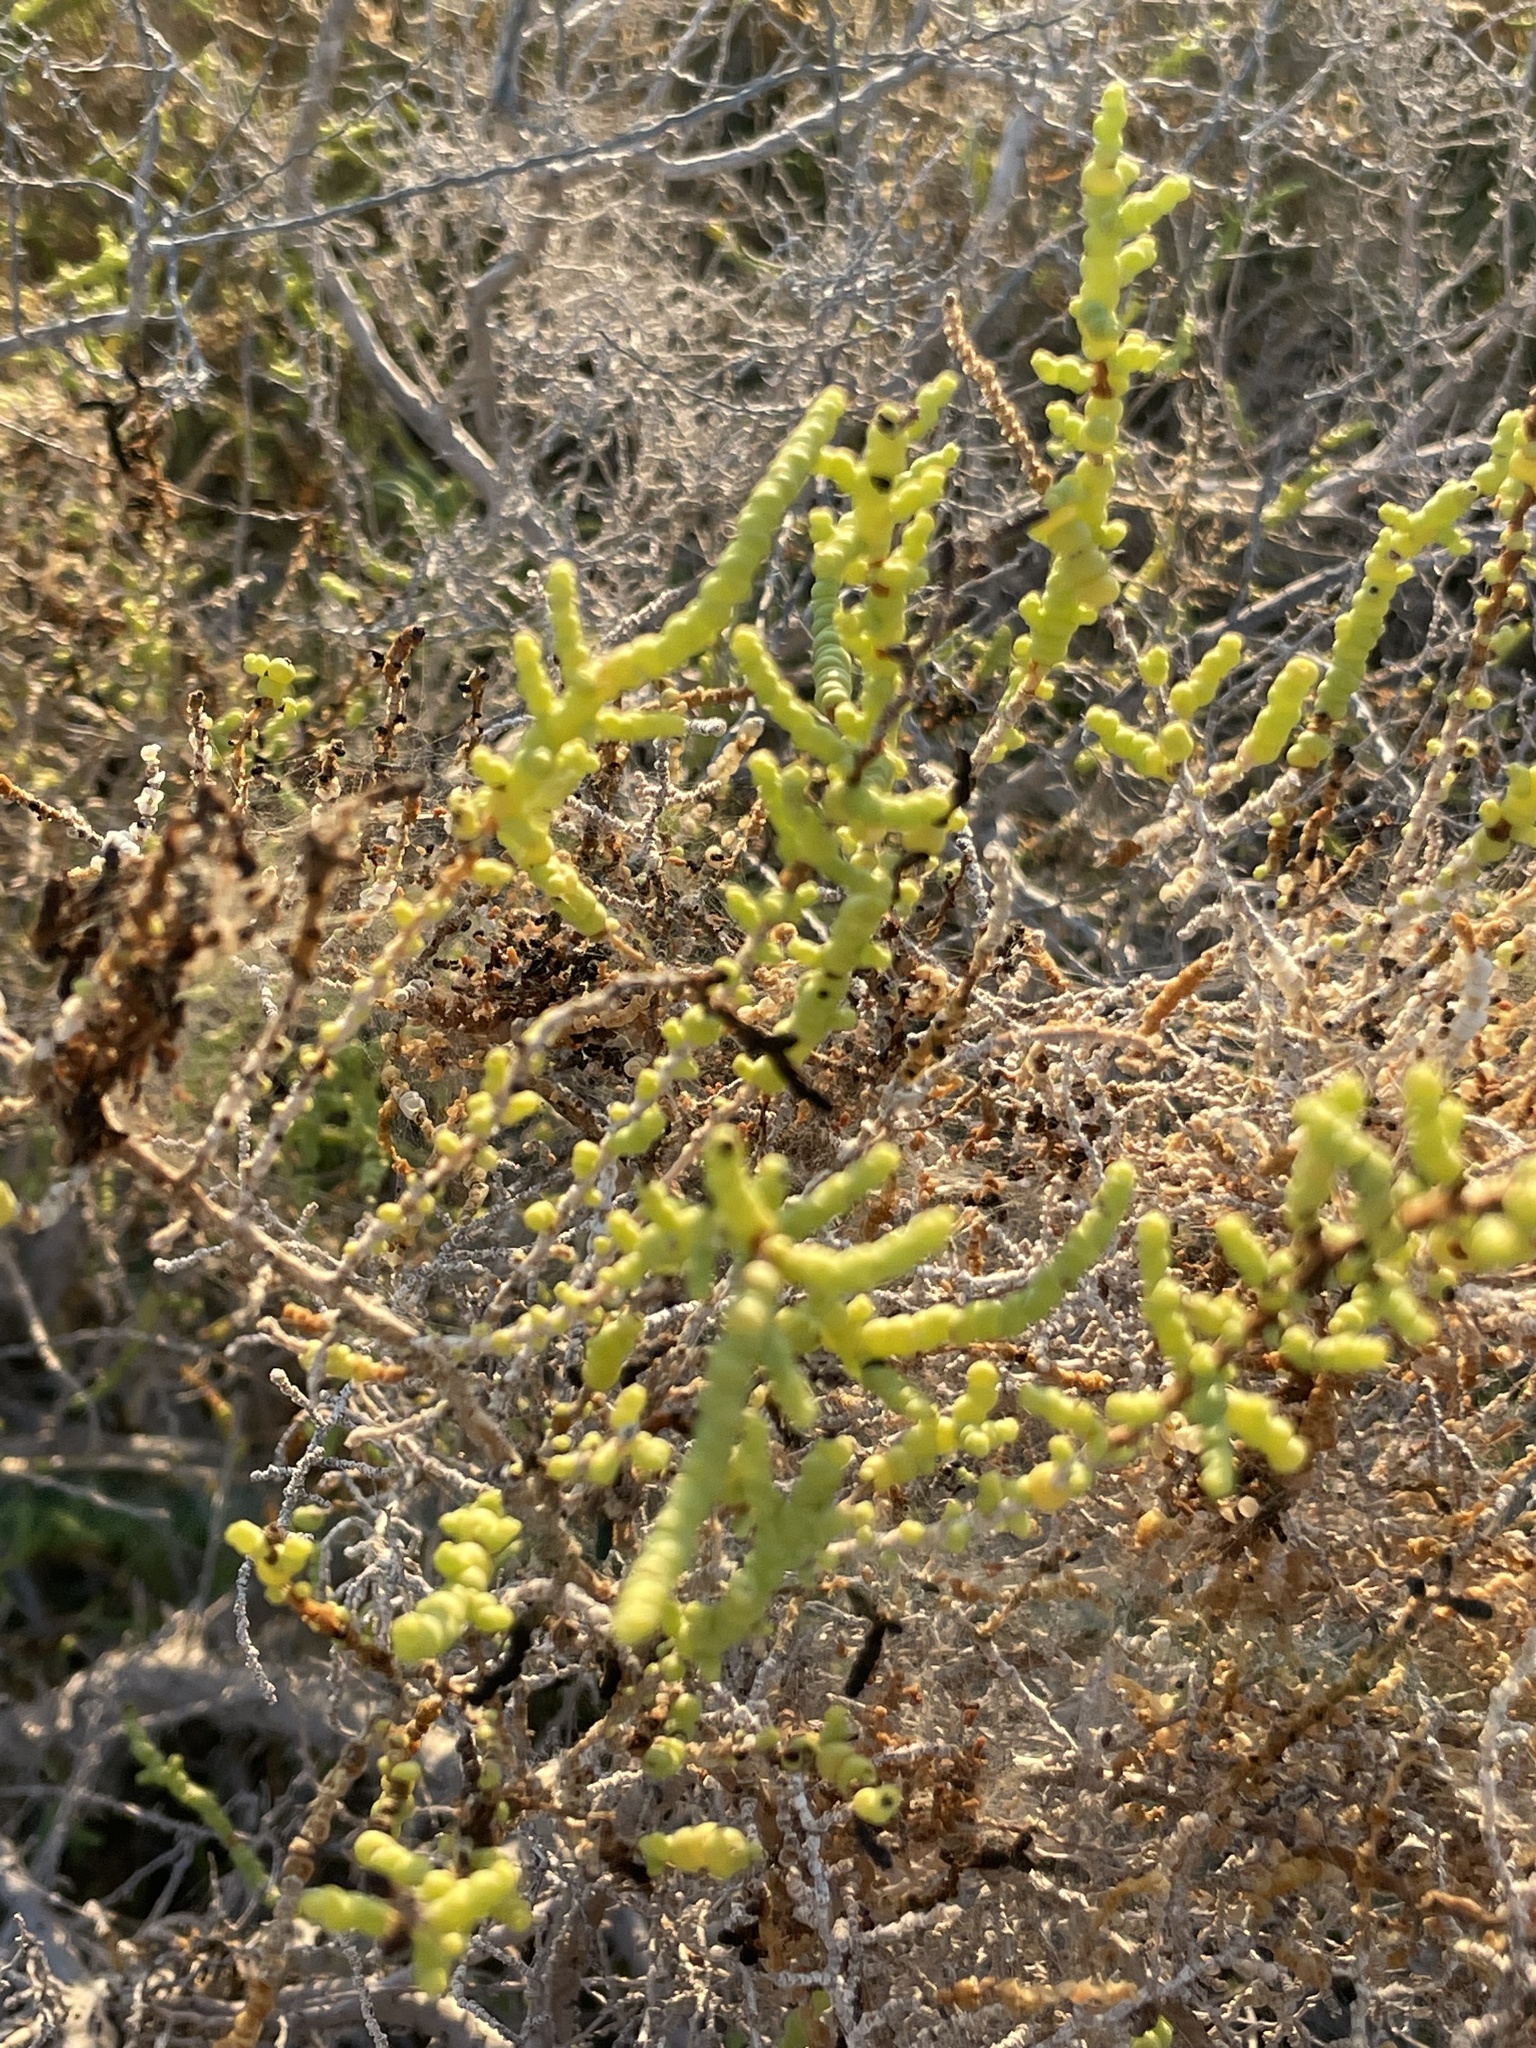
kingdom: Plantae
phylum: Tracheophyta
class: Magnoliopsida
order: Caryophyllales
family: Amaranthaceae
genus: Allenrolfea
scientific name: Allenrolfea occidentalis
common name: Iodine-bush
